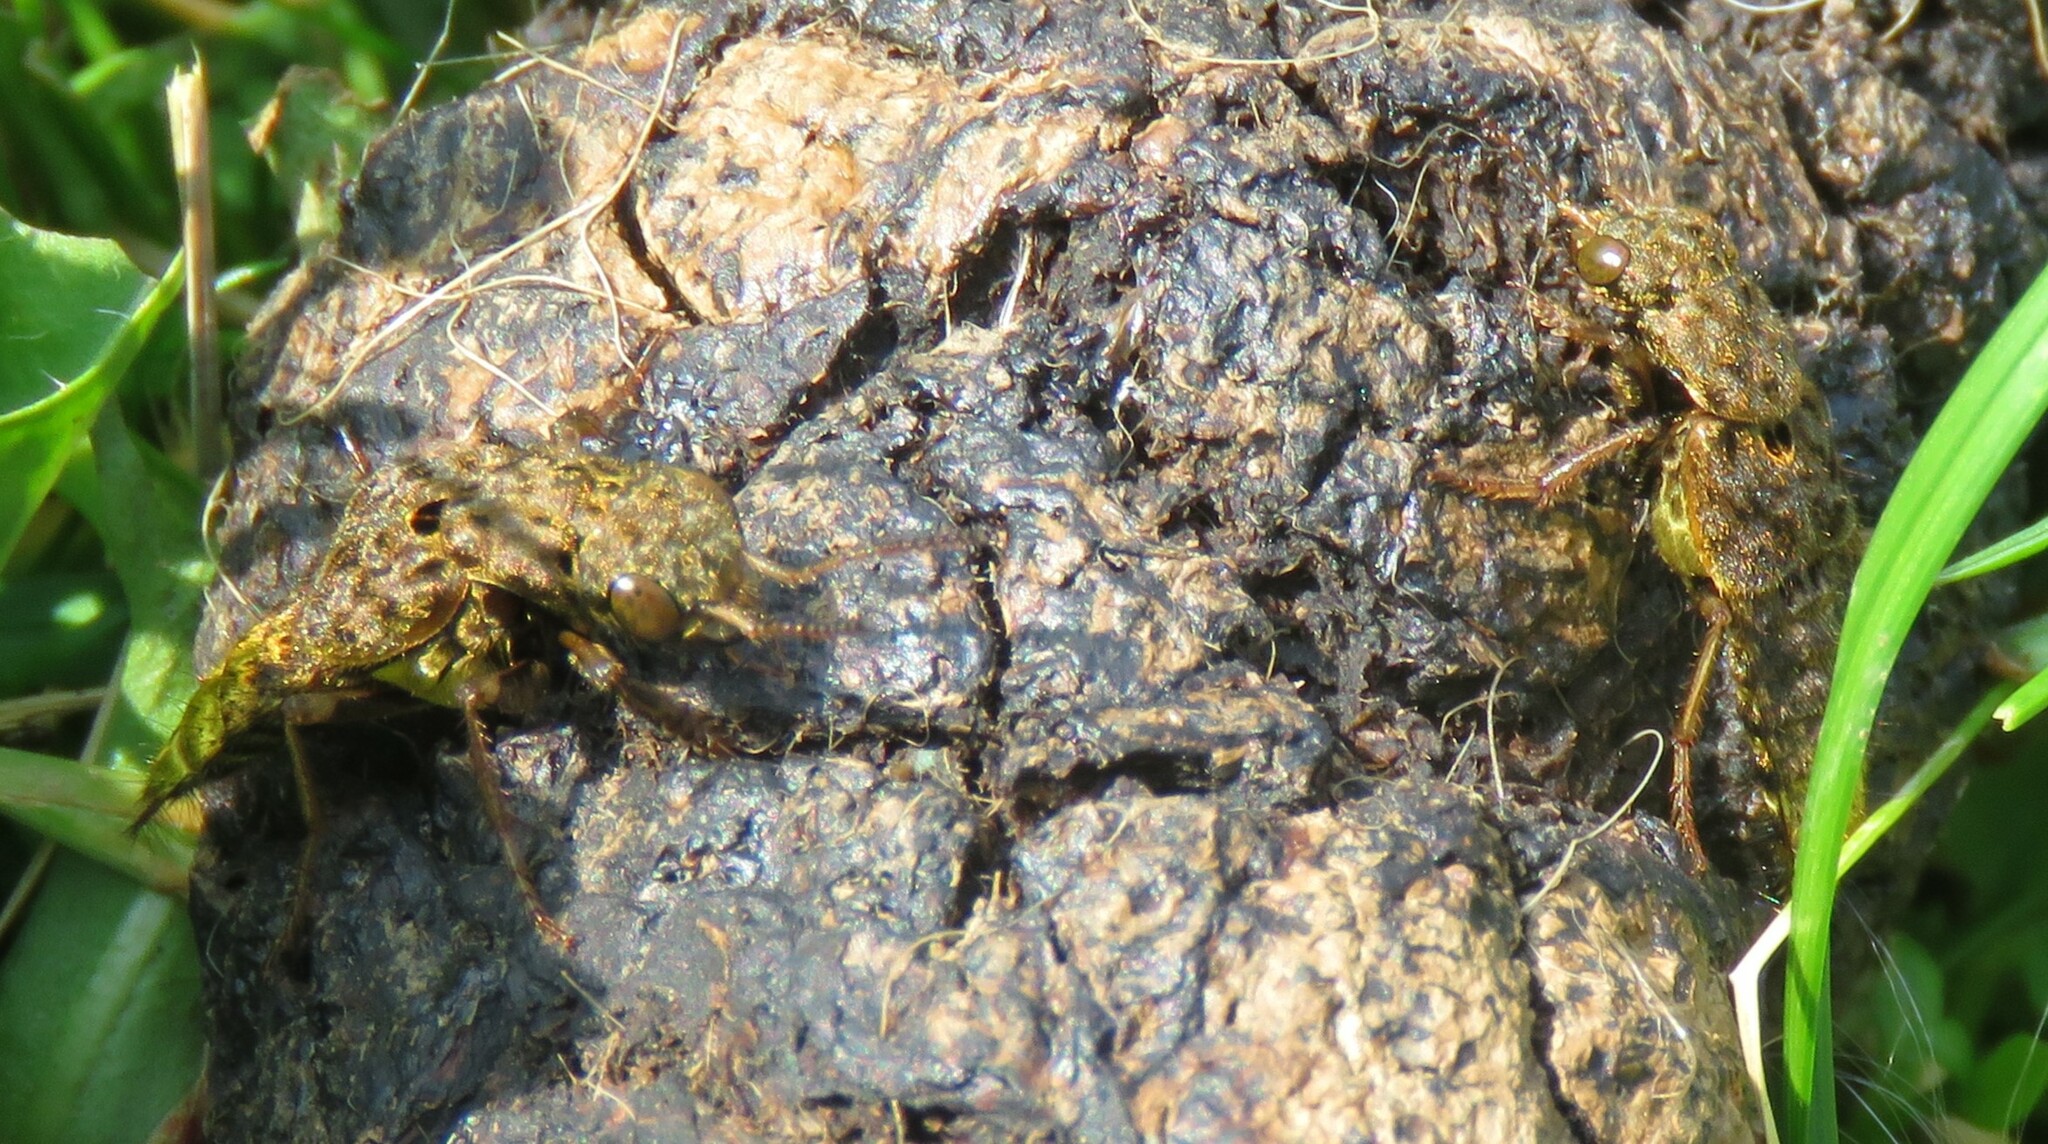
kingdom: Animalia
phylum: Arthropoda
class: Insecta
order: Coleoptera
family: Staphylinidae
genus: Ontholestes
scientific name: Ontholestes cingulatus
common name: Gold-and-brown rove beetle
